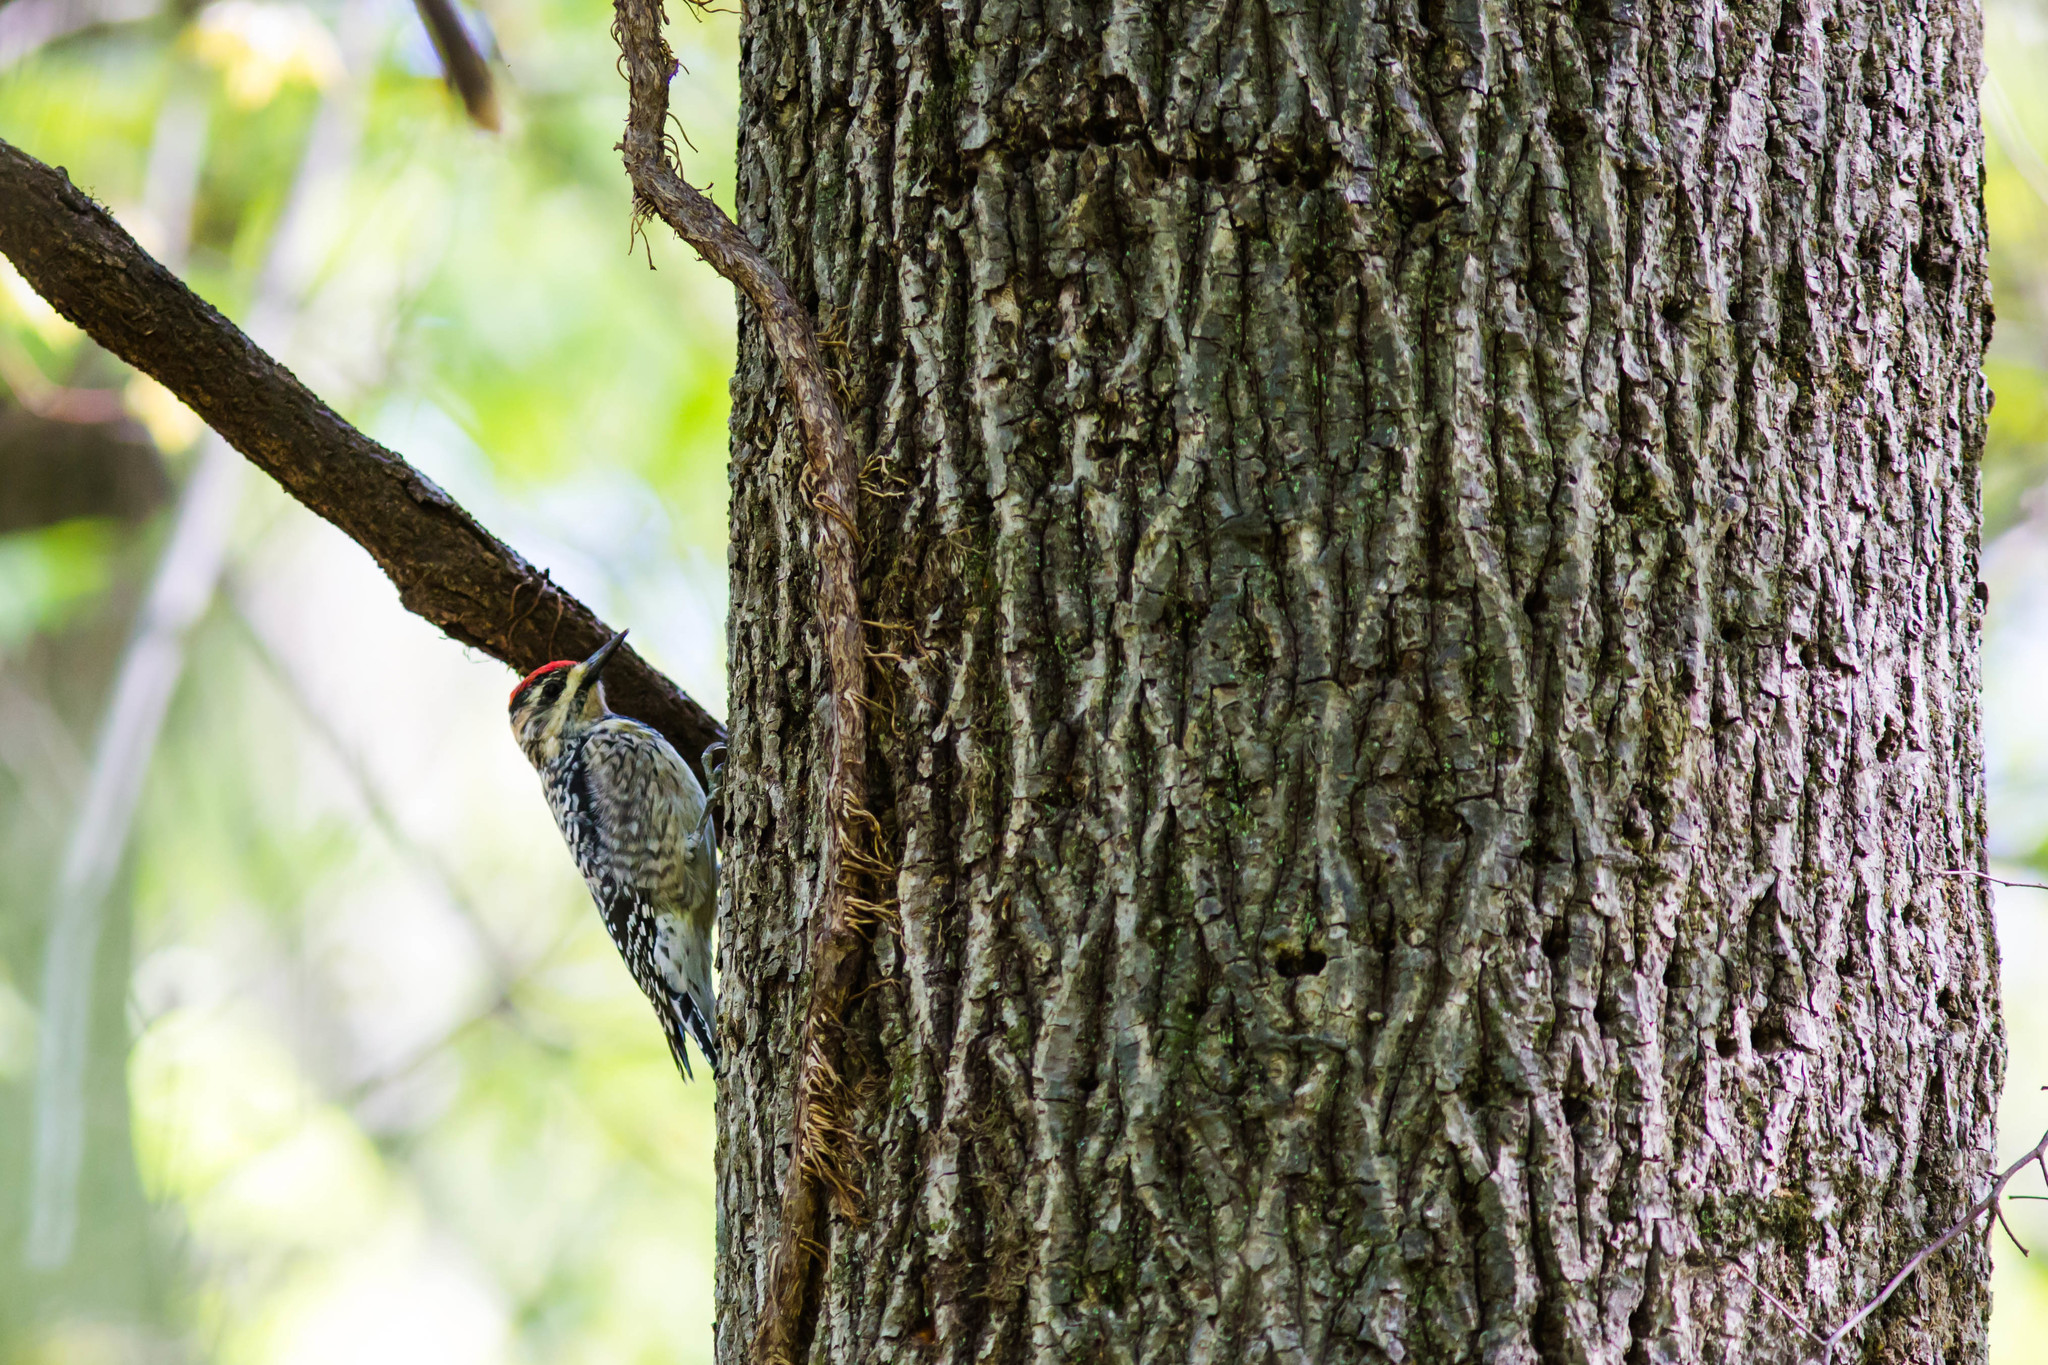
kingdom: Animalia
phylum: Chordata
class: Aves
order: Piciformes
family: Picidae
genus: Sphyrapicus
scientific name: Sphyrapicus varius
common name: Yellow-bellied sapsucker
